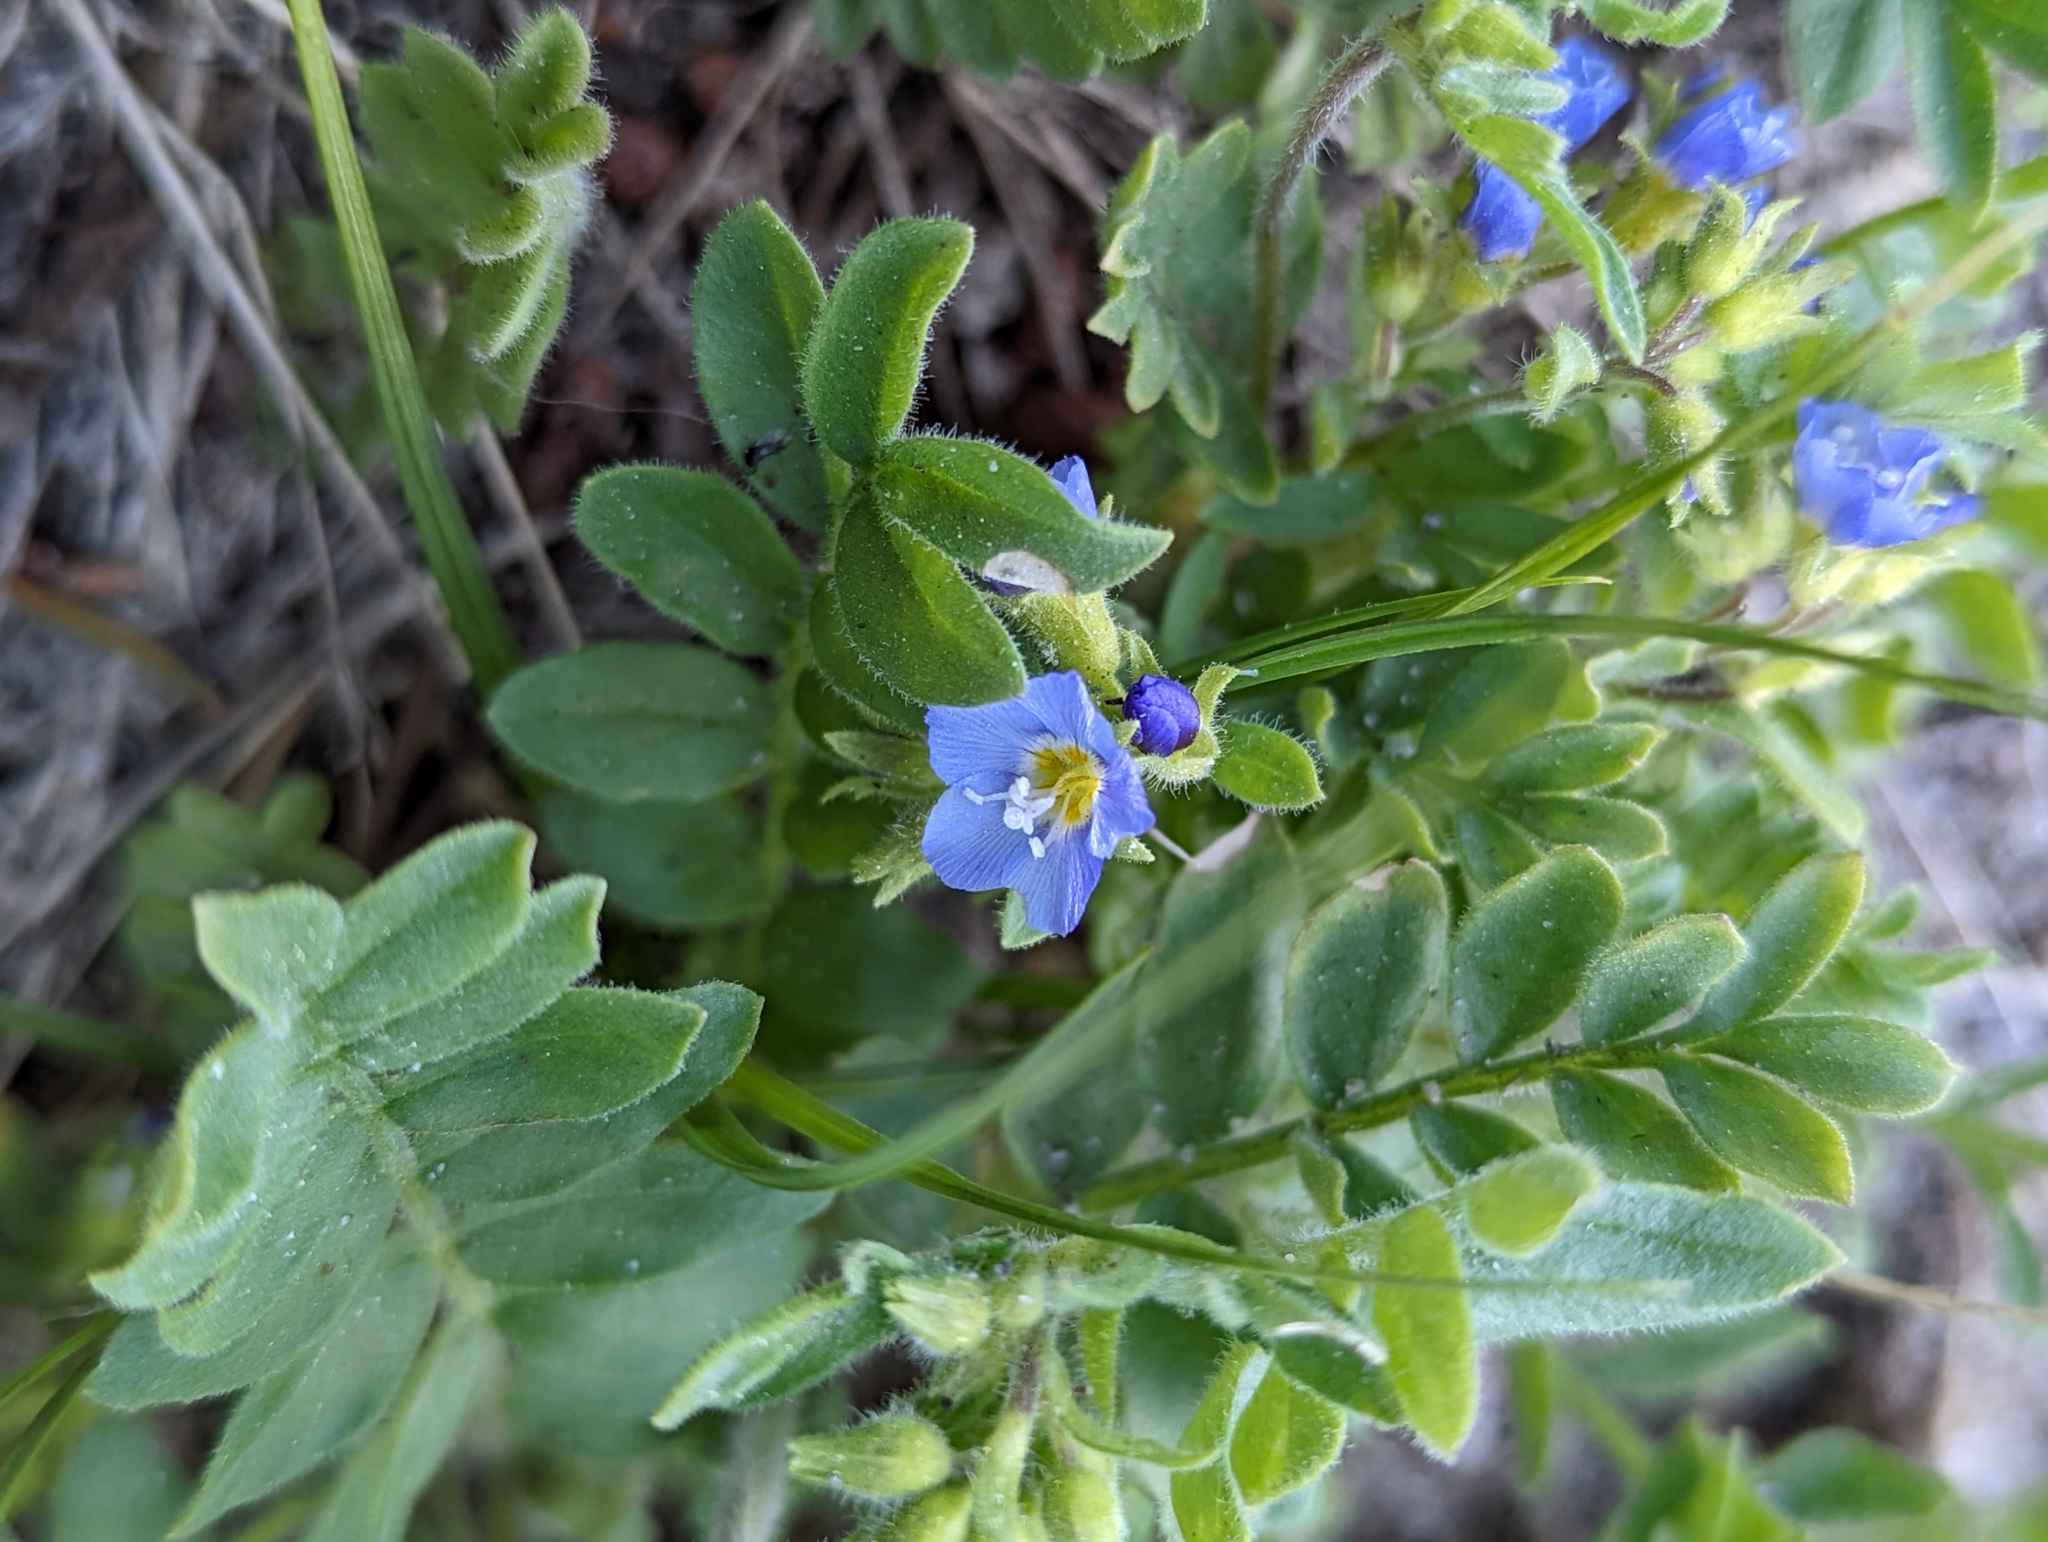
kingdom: Plantae
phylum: Tracheophyta
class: Magnoliopsida
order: Ericales
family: Polemoniaceae
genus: Polemonium
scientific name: Polemonium californicum
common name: California jacob's ladder
